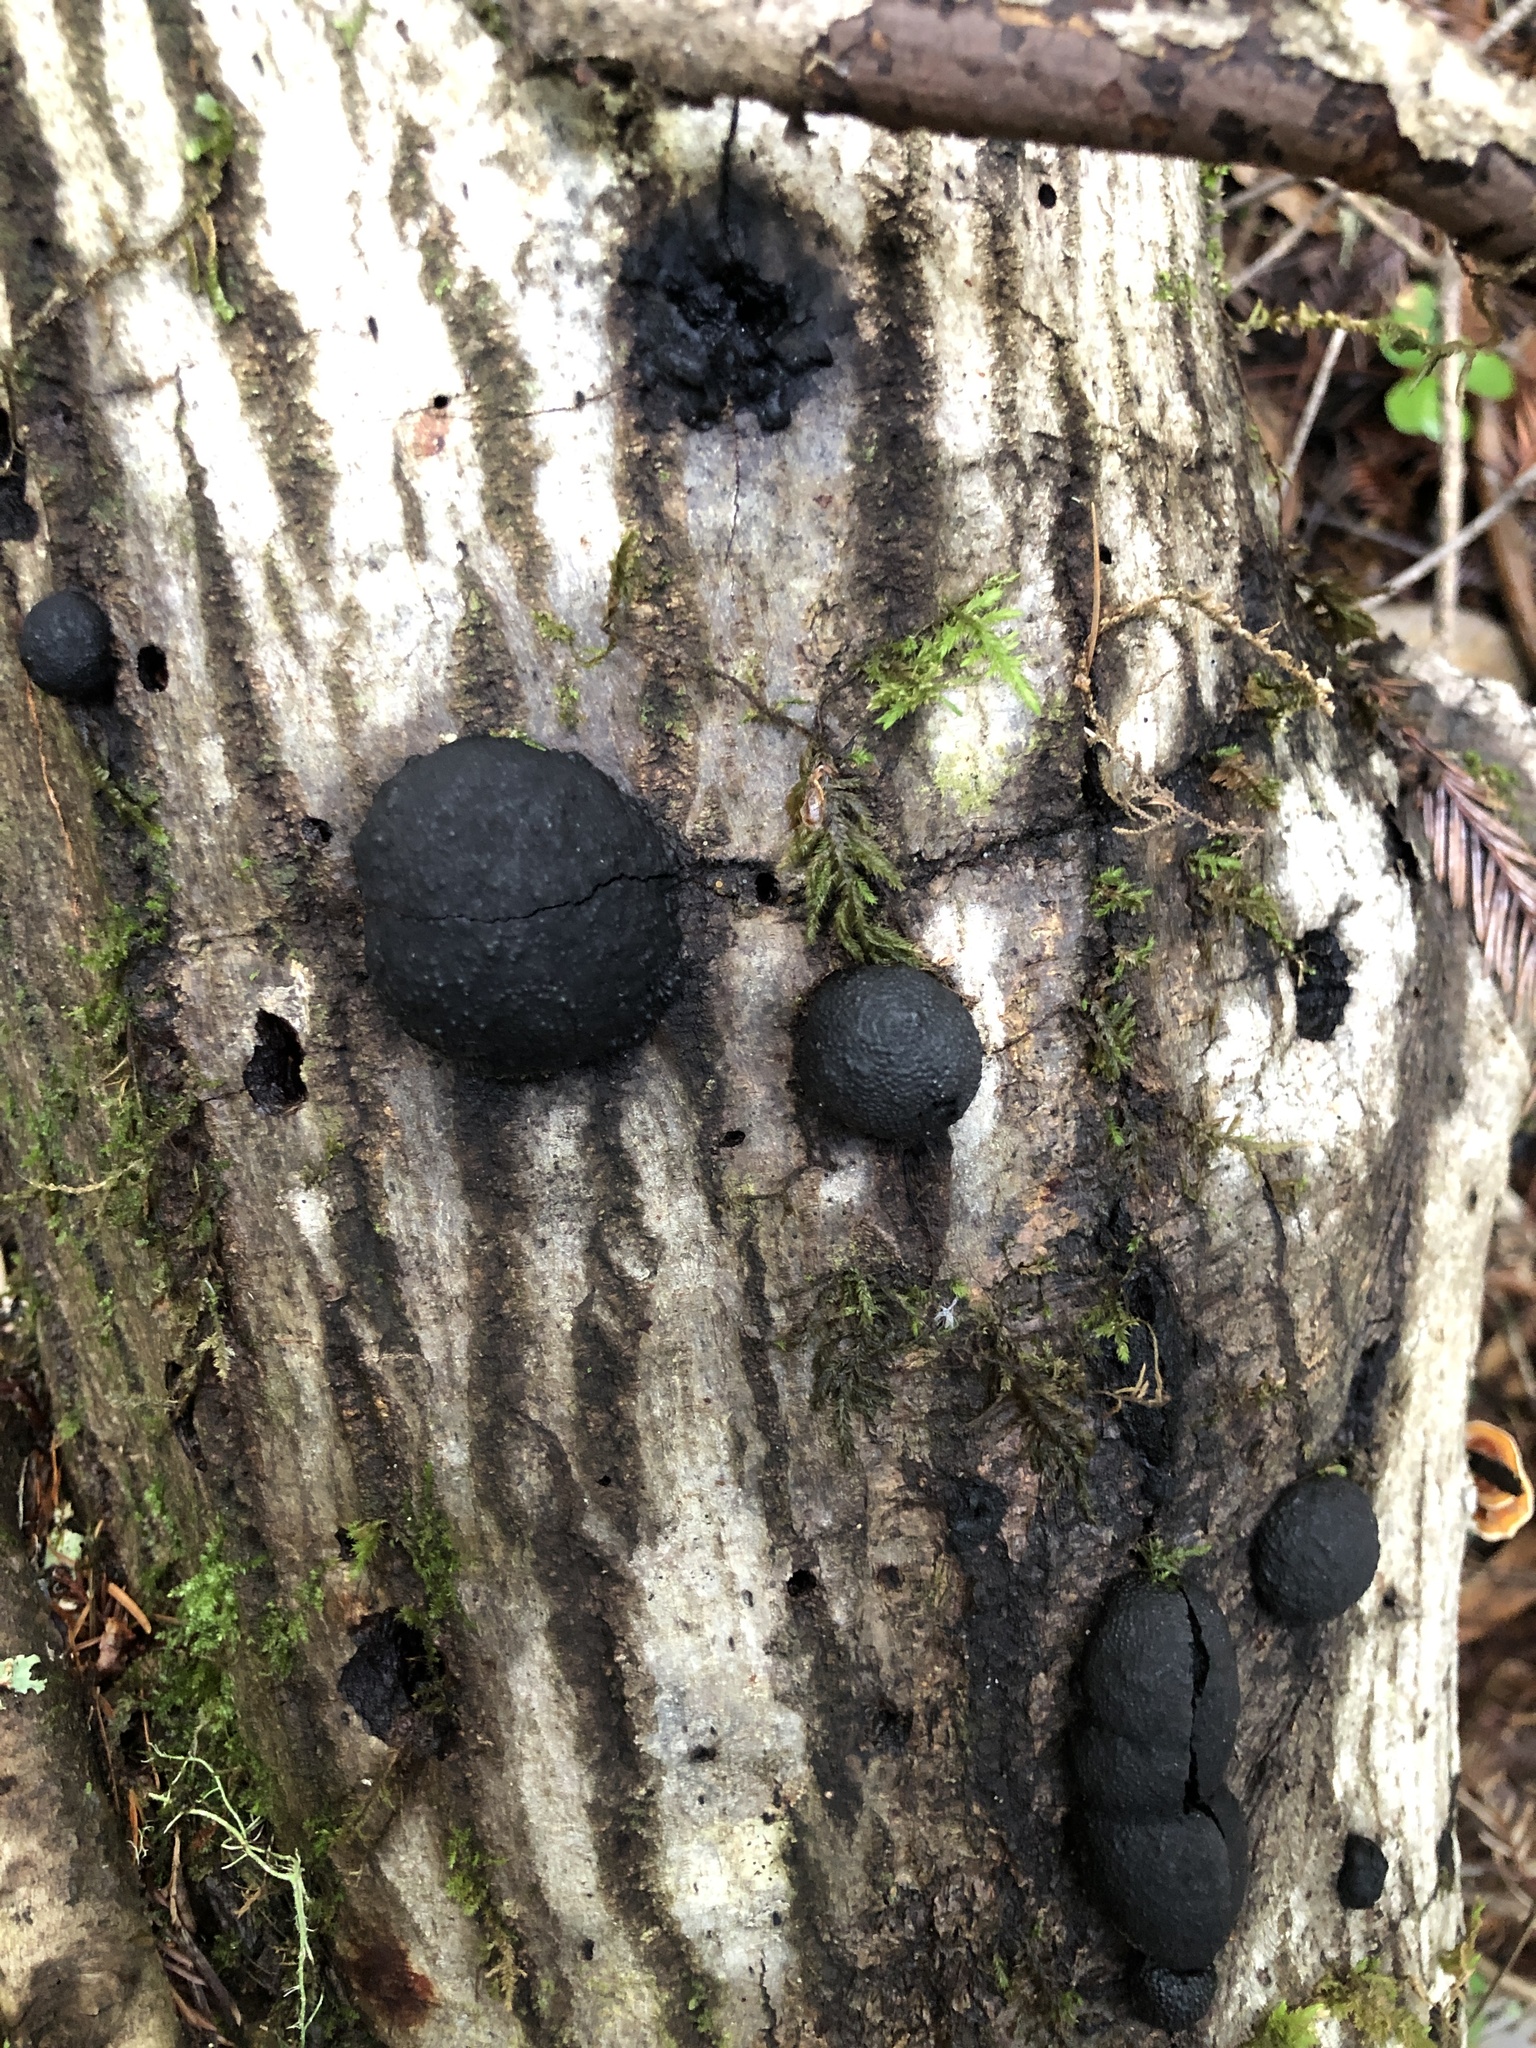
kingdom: Fungi
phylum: Ascomycota
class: Sordariomycetes
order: Xylariales
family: Hypoxylaceae
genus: Annulohypoxylon
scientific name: Annulohypoxylon thouarsianum
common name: Cramp balls
